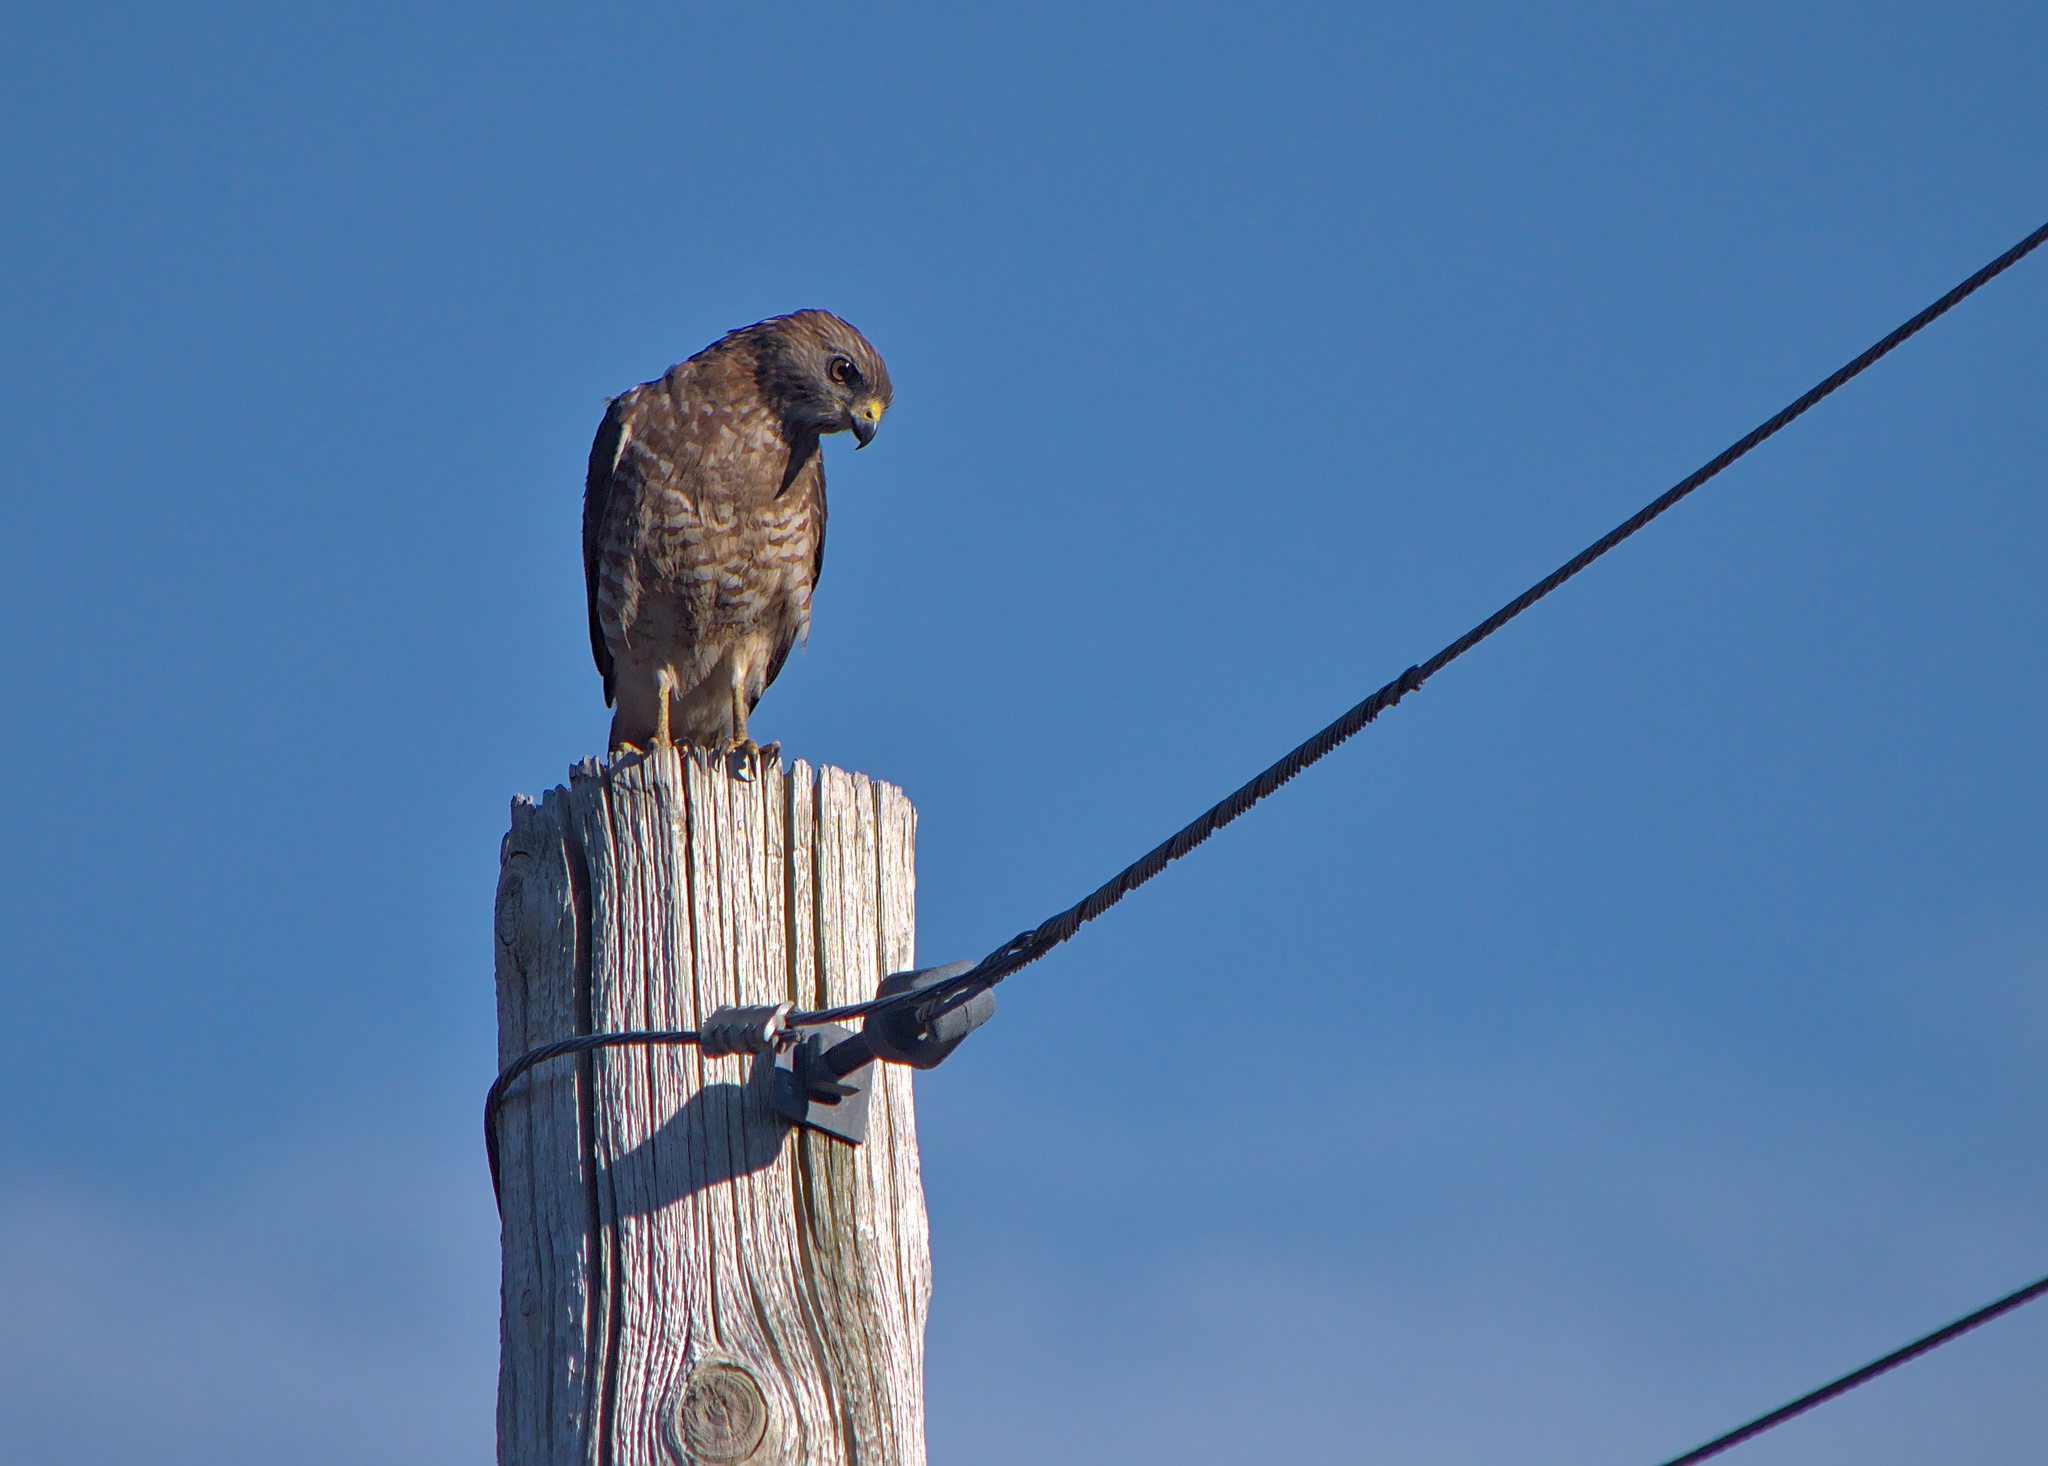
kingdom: Animalia
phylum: Chordata
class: Aves
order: Accipitriformes
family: Accipitridae
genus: Buteo
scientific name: Buteo platypterus
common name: Broad-winged hawk
